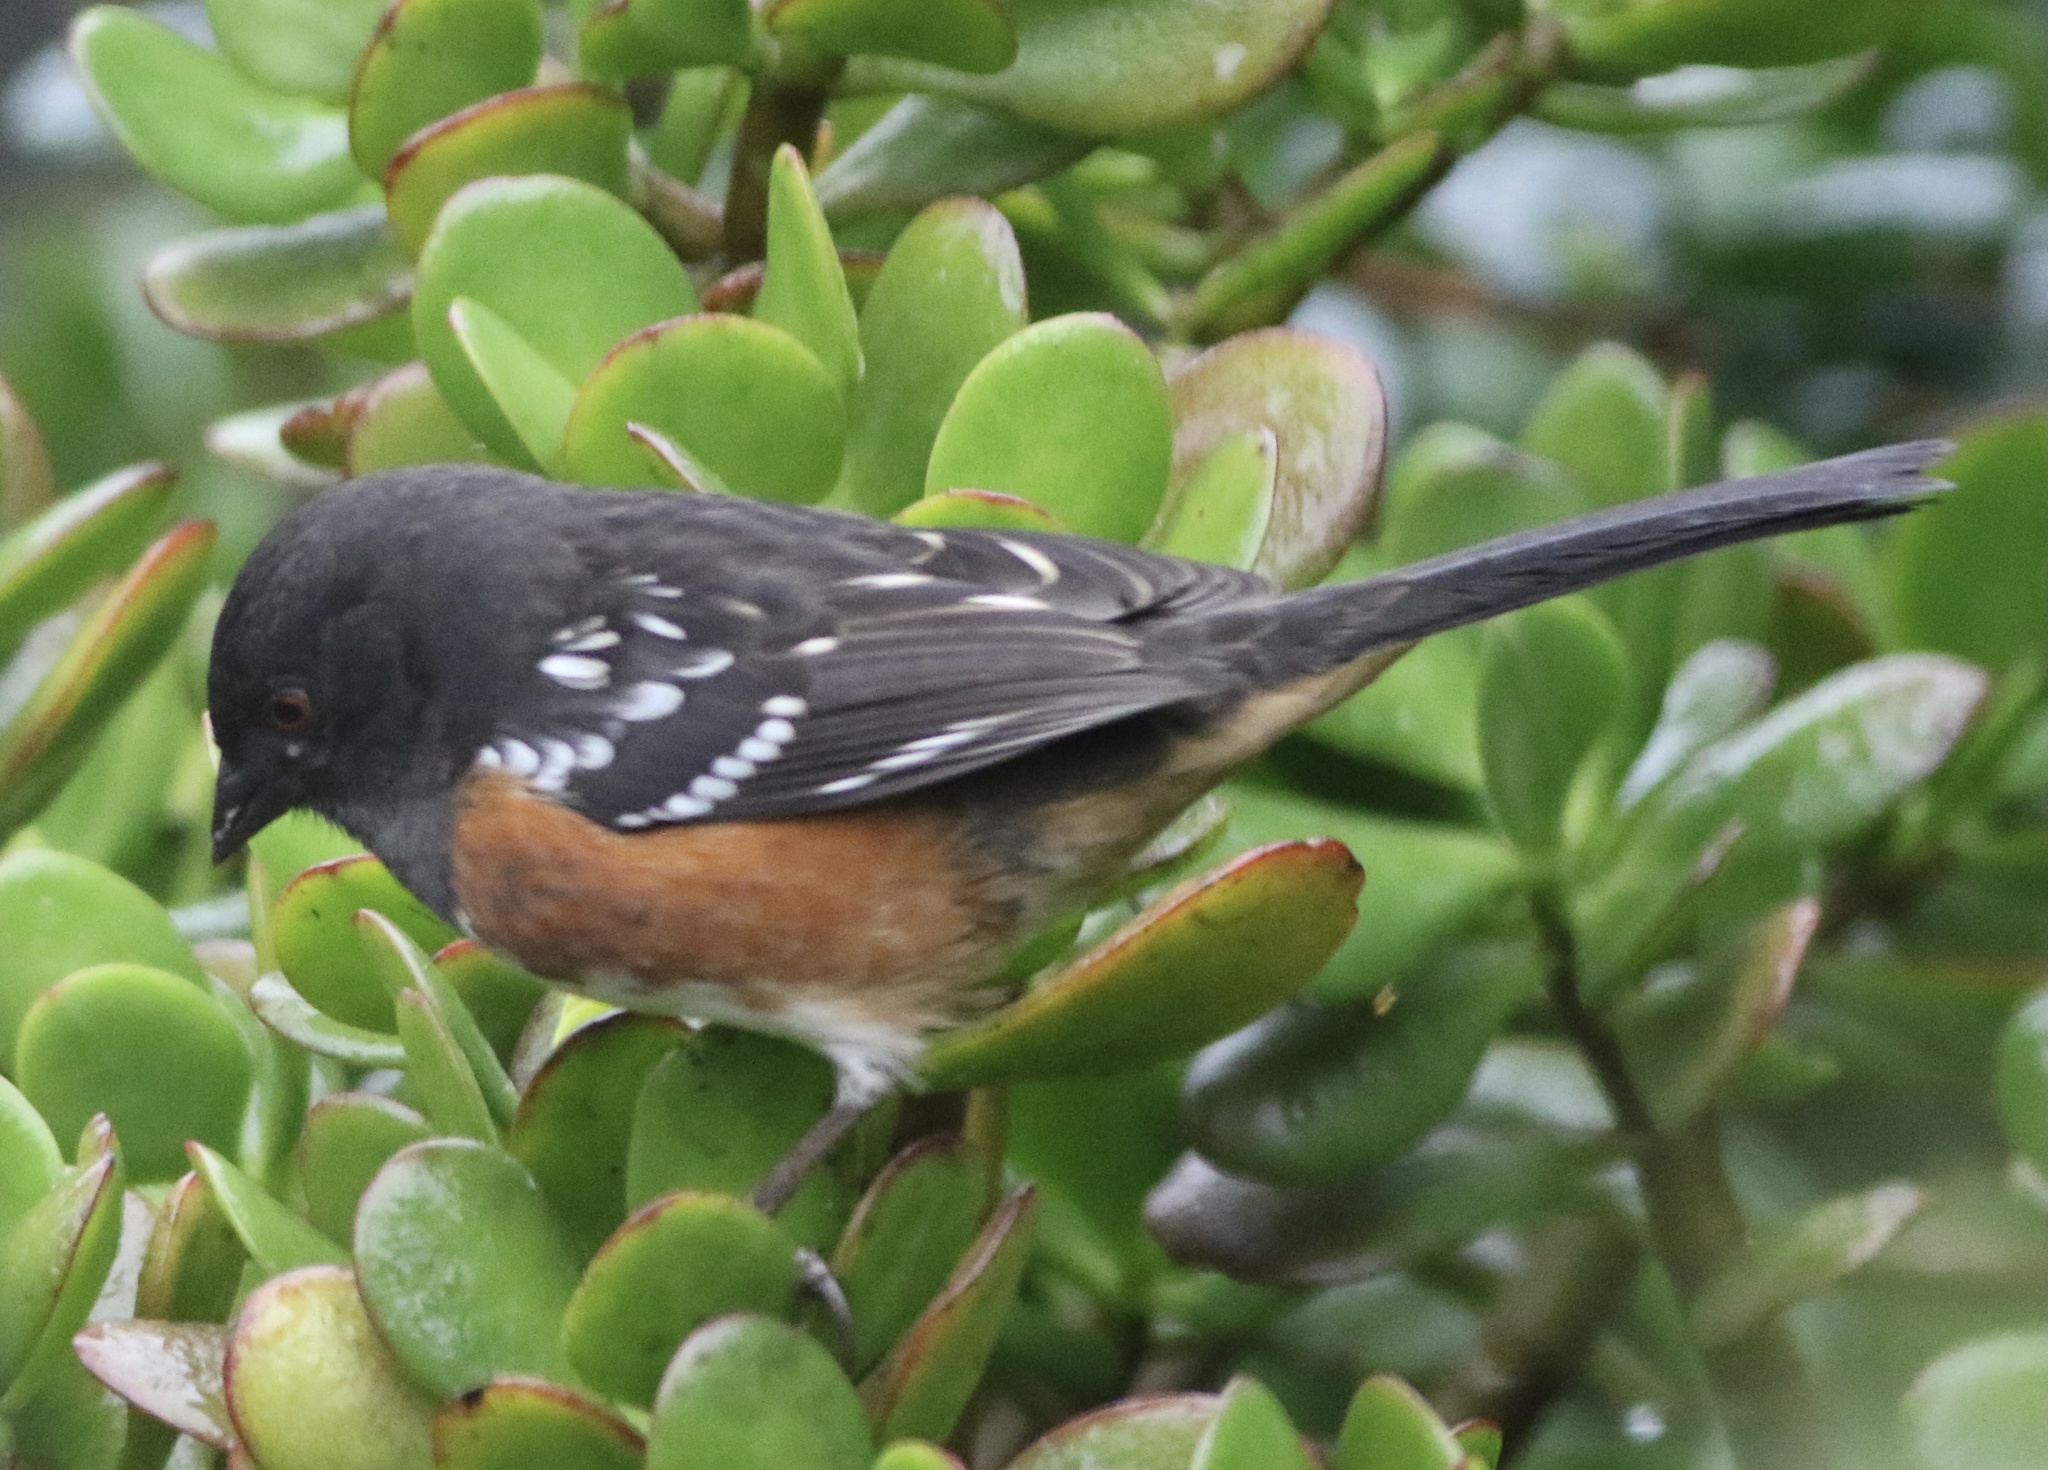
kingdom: Animalia
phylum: Chordata
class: Aves
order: Passeriformes
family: Passerellidae
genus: Pipilo
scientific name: Pipilo maculatus
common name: Spotted towhee
